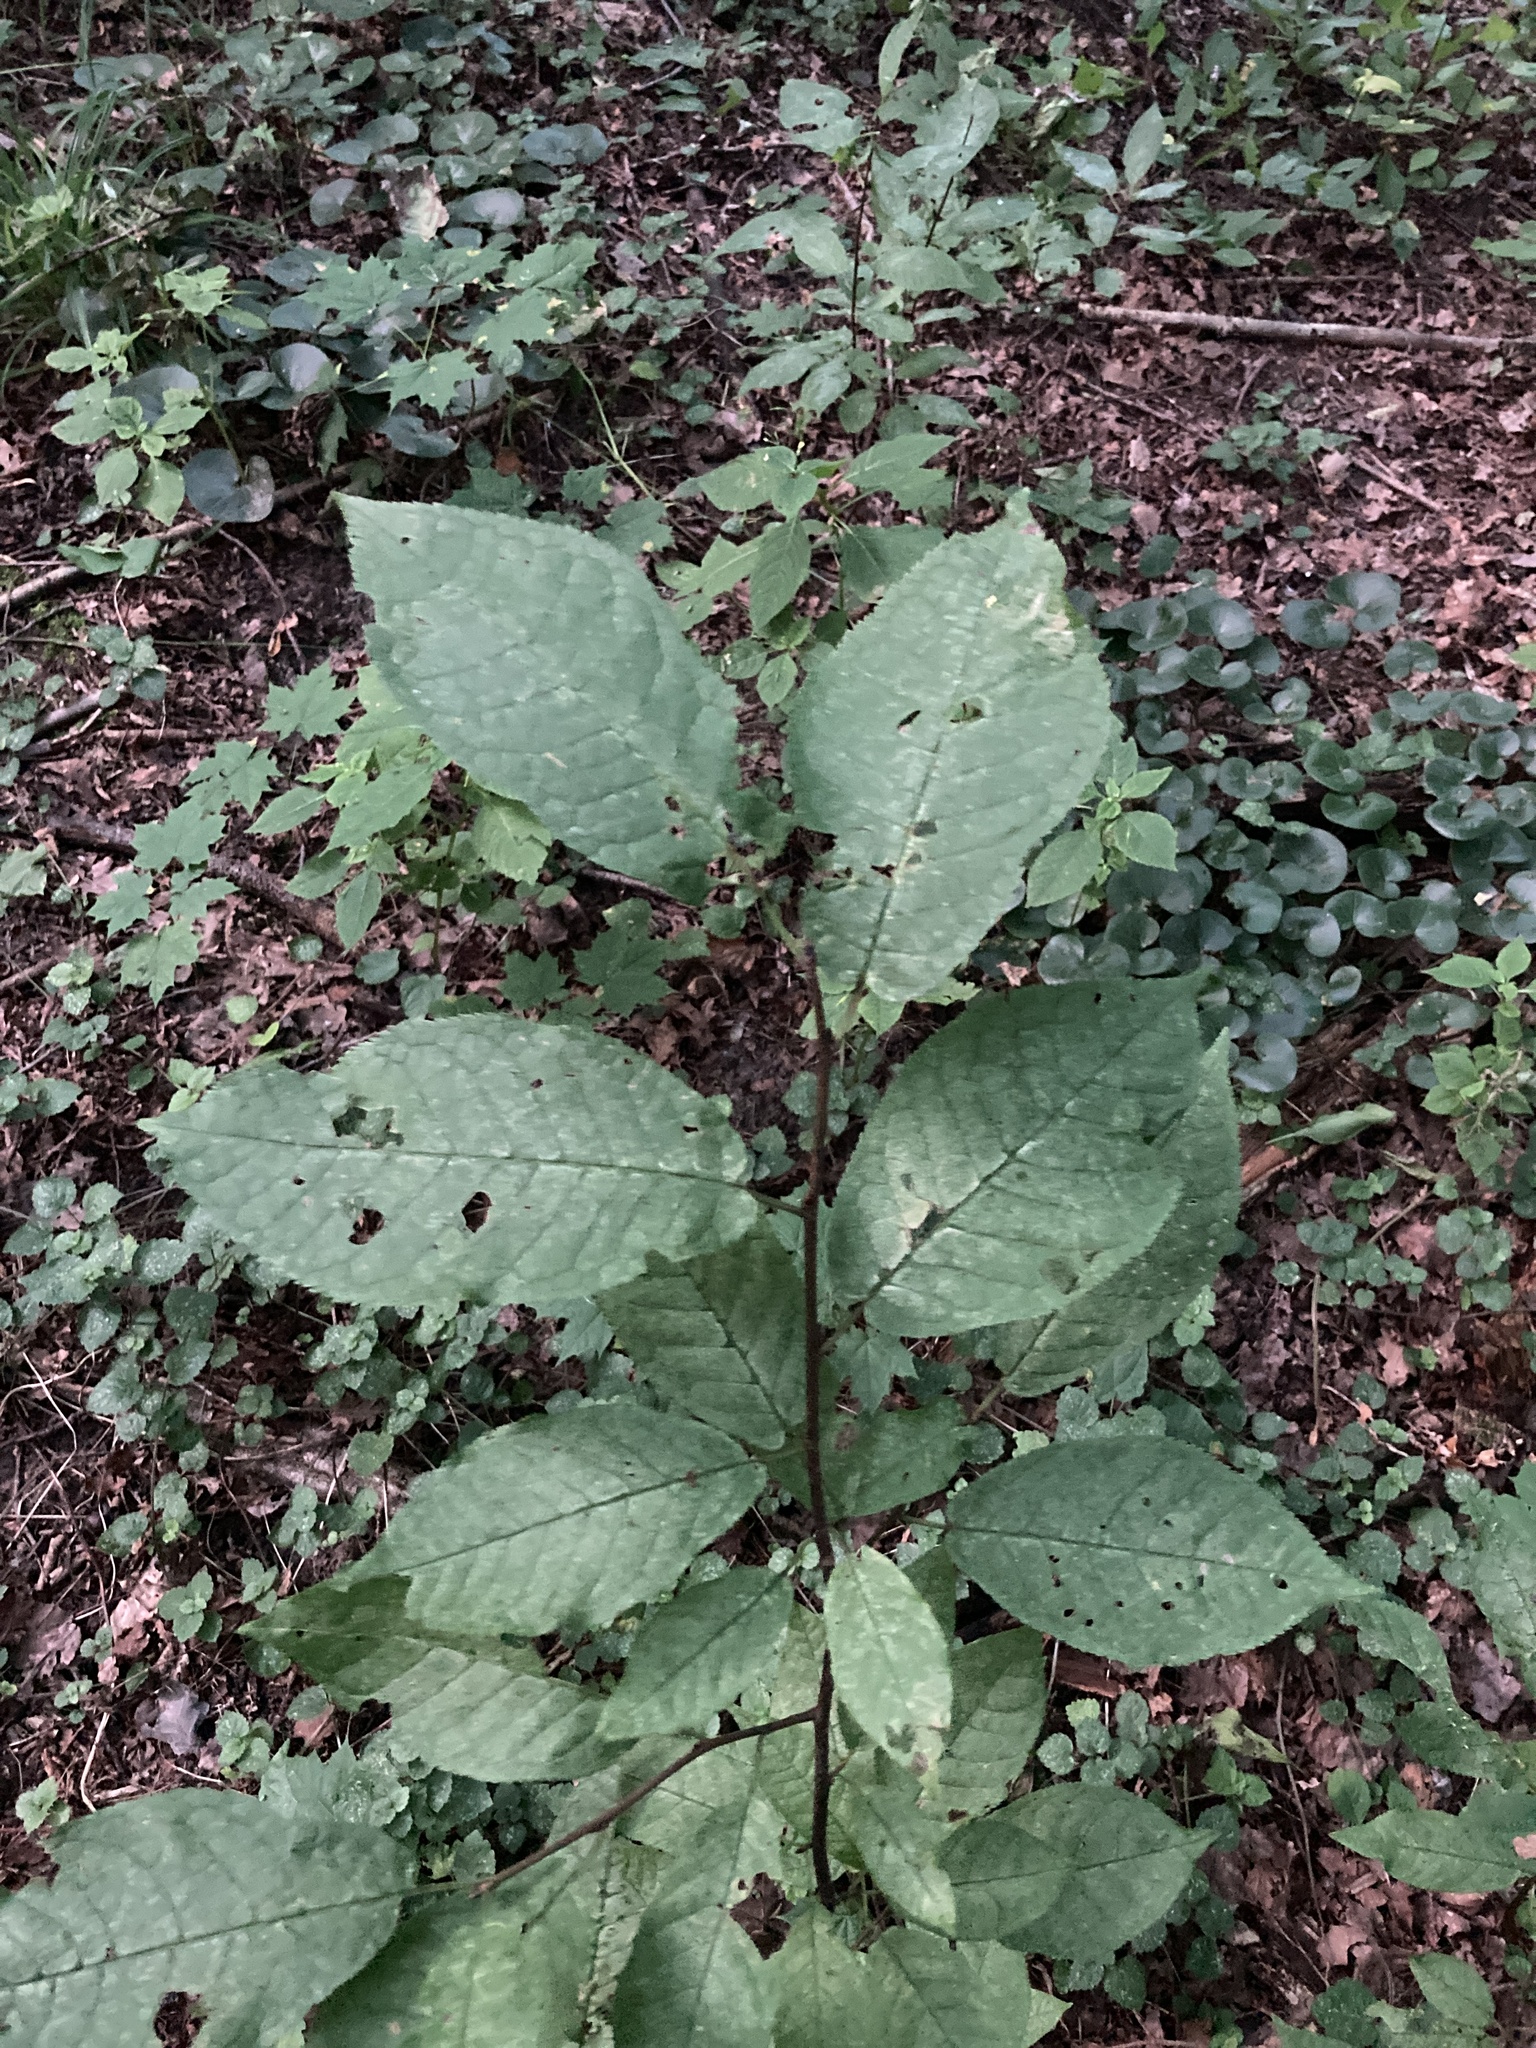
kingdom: Plantae
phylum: Tracheophyta
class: Magnoliopsida
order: Rosales
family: Rosaceae
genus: Prunus
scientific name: Prunus padus
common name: Bird cherry
